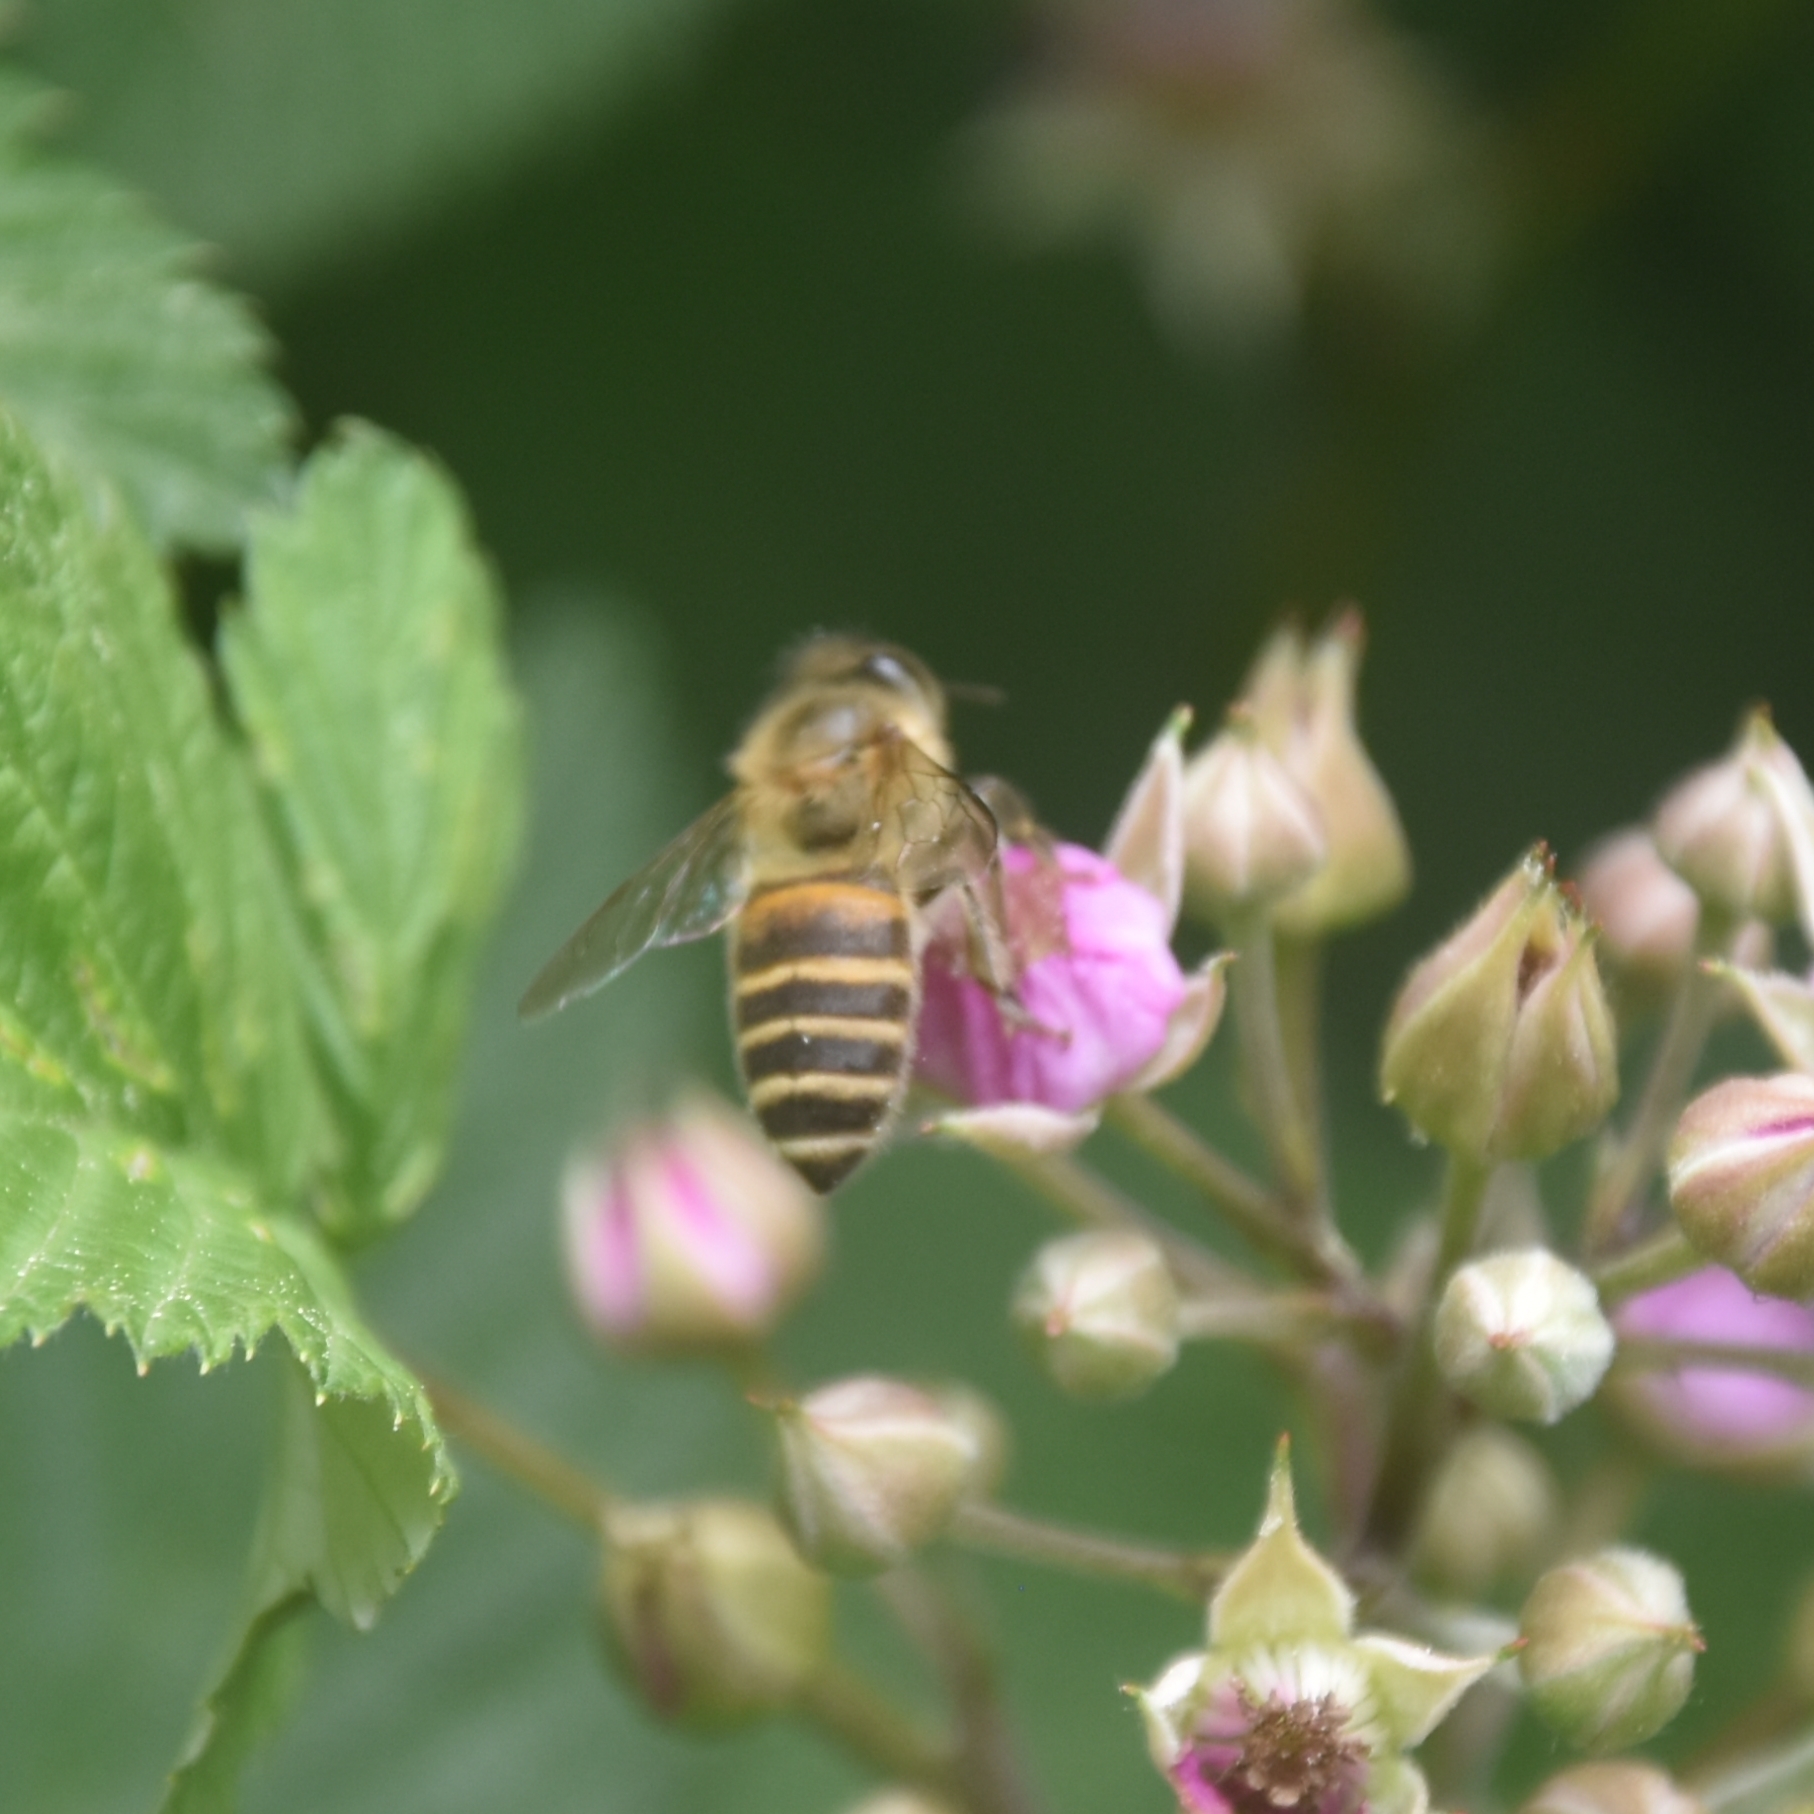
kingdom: Animalia
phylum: Arthropoda
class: Insecta
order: Hymenoptera
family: Apidae
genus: Apis
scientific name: Apis cerana
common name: Honey bee
